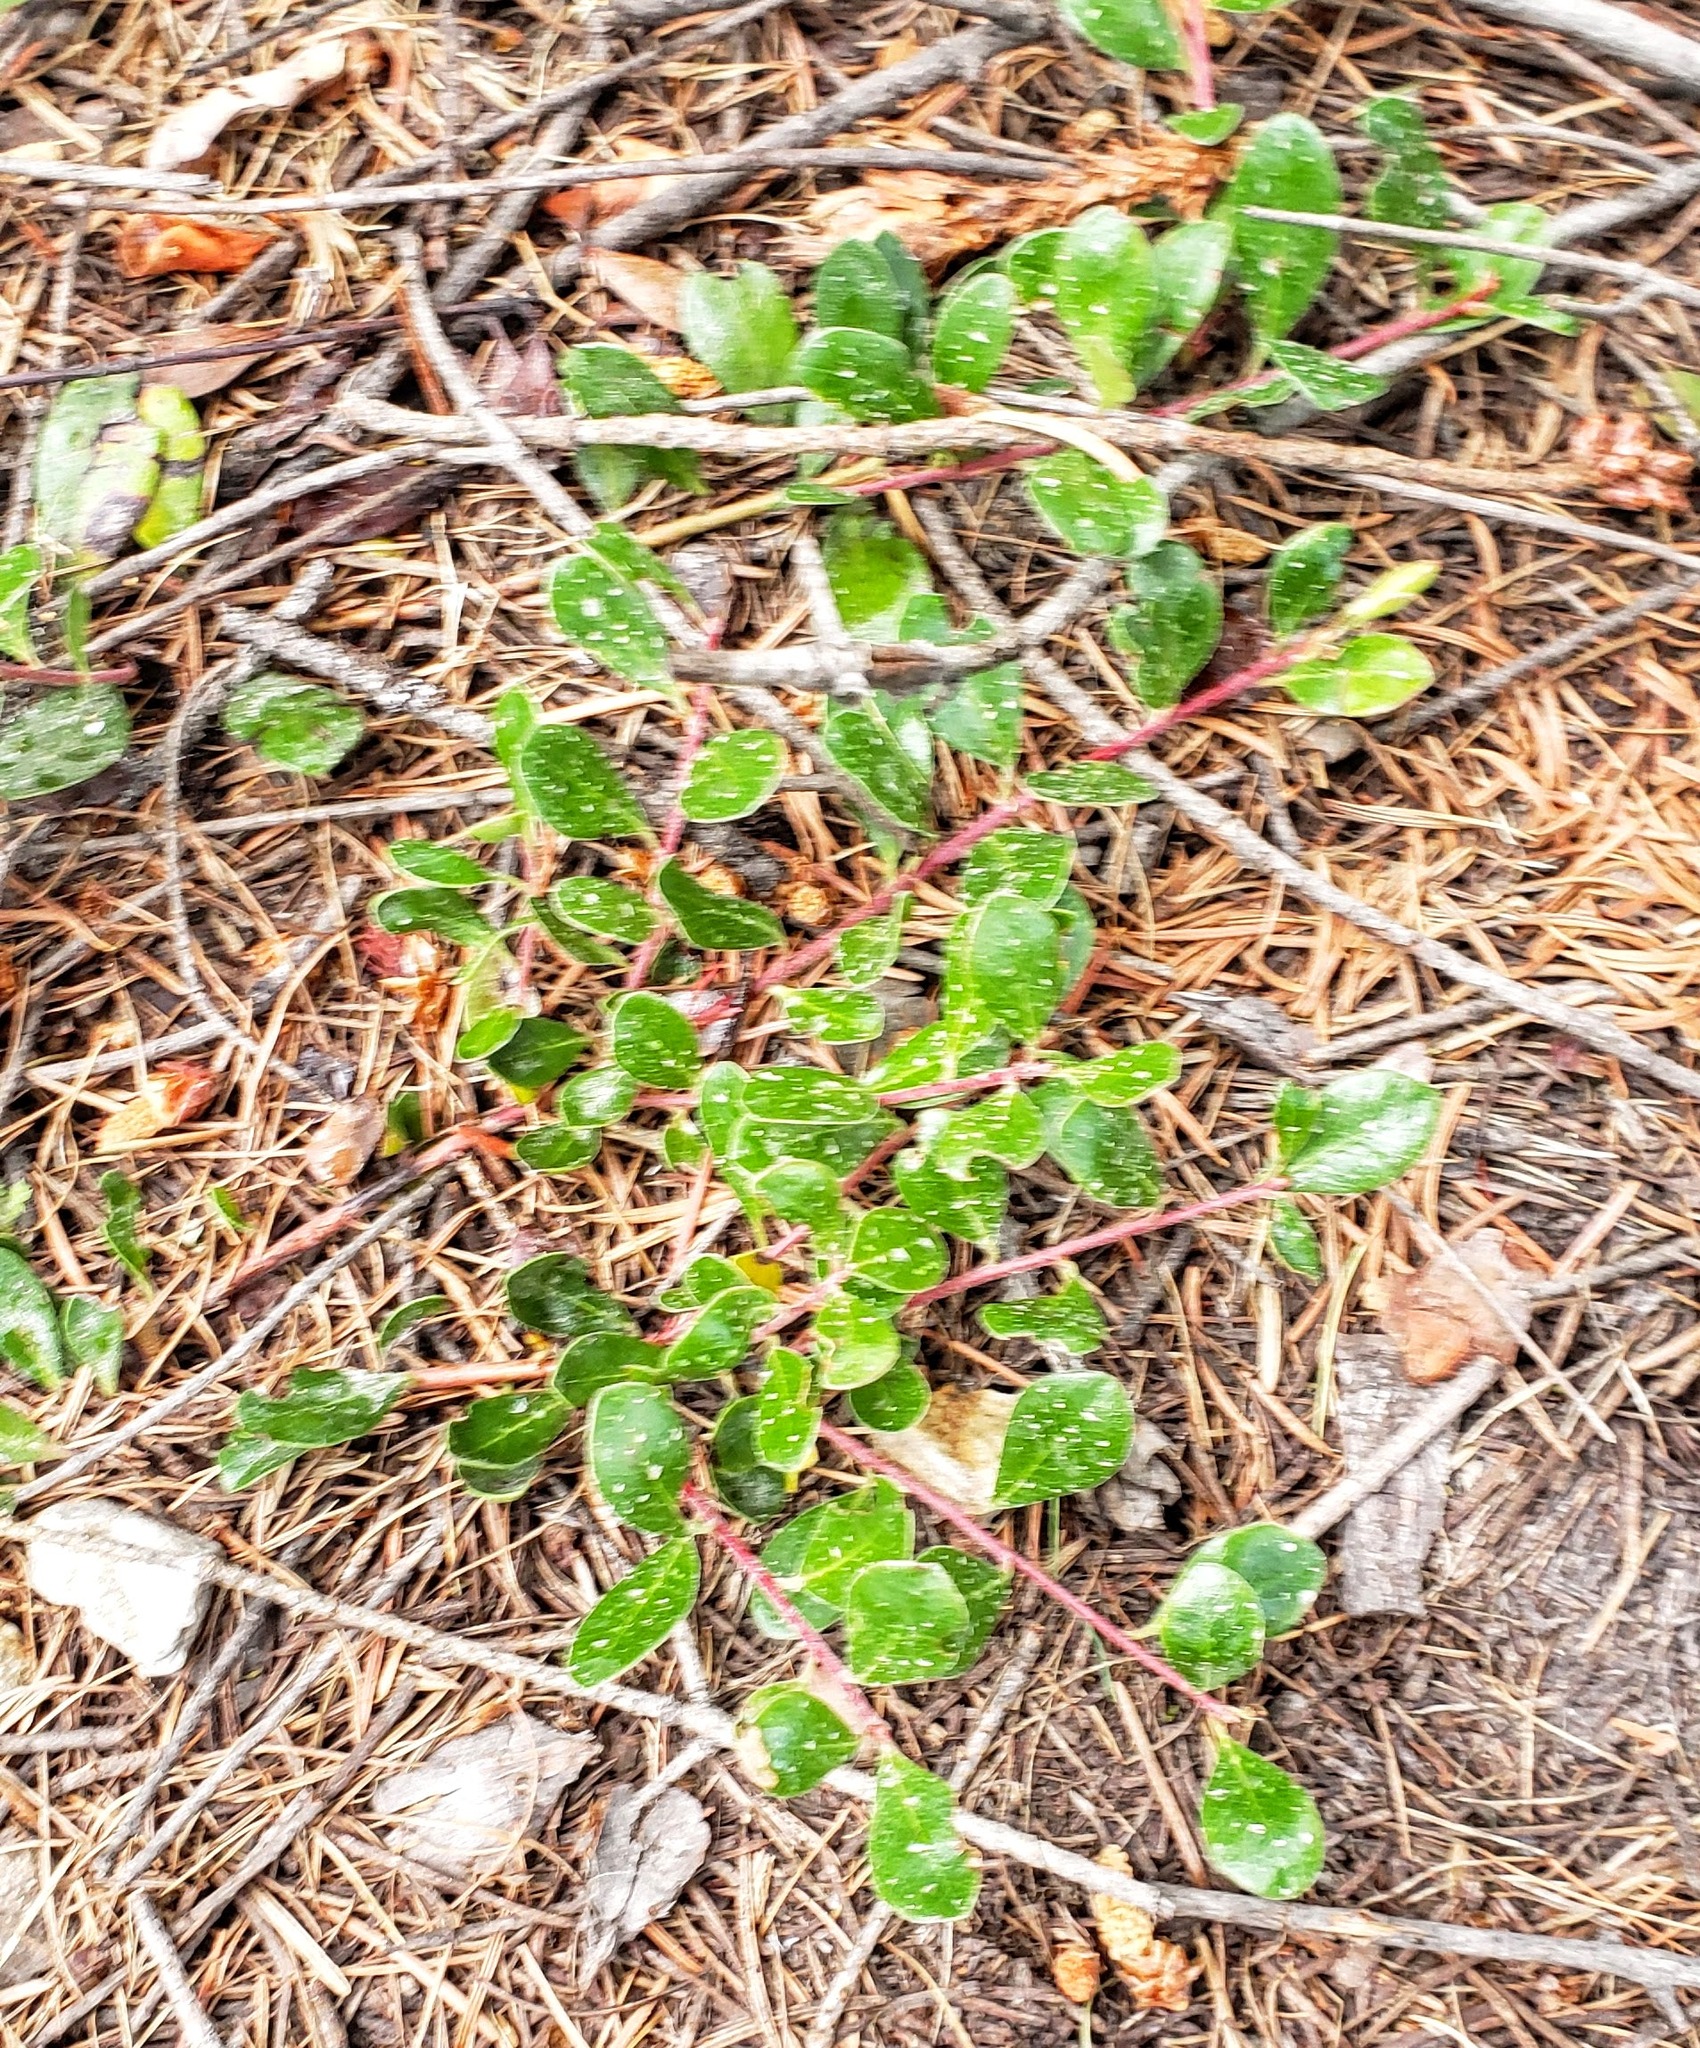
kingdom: Plantae
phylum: Tracheophyta
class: Magnoliopsida
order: Ericales
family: Ericaceae
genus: Arctostaphylos
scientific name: Arctostaphylos uva-ursi
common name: Bearberry
